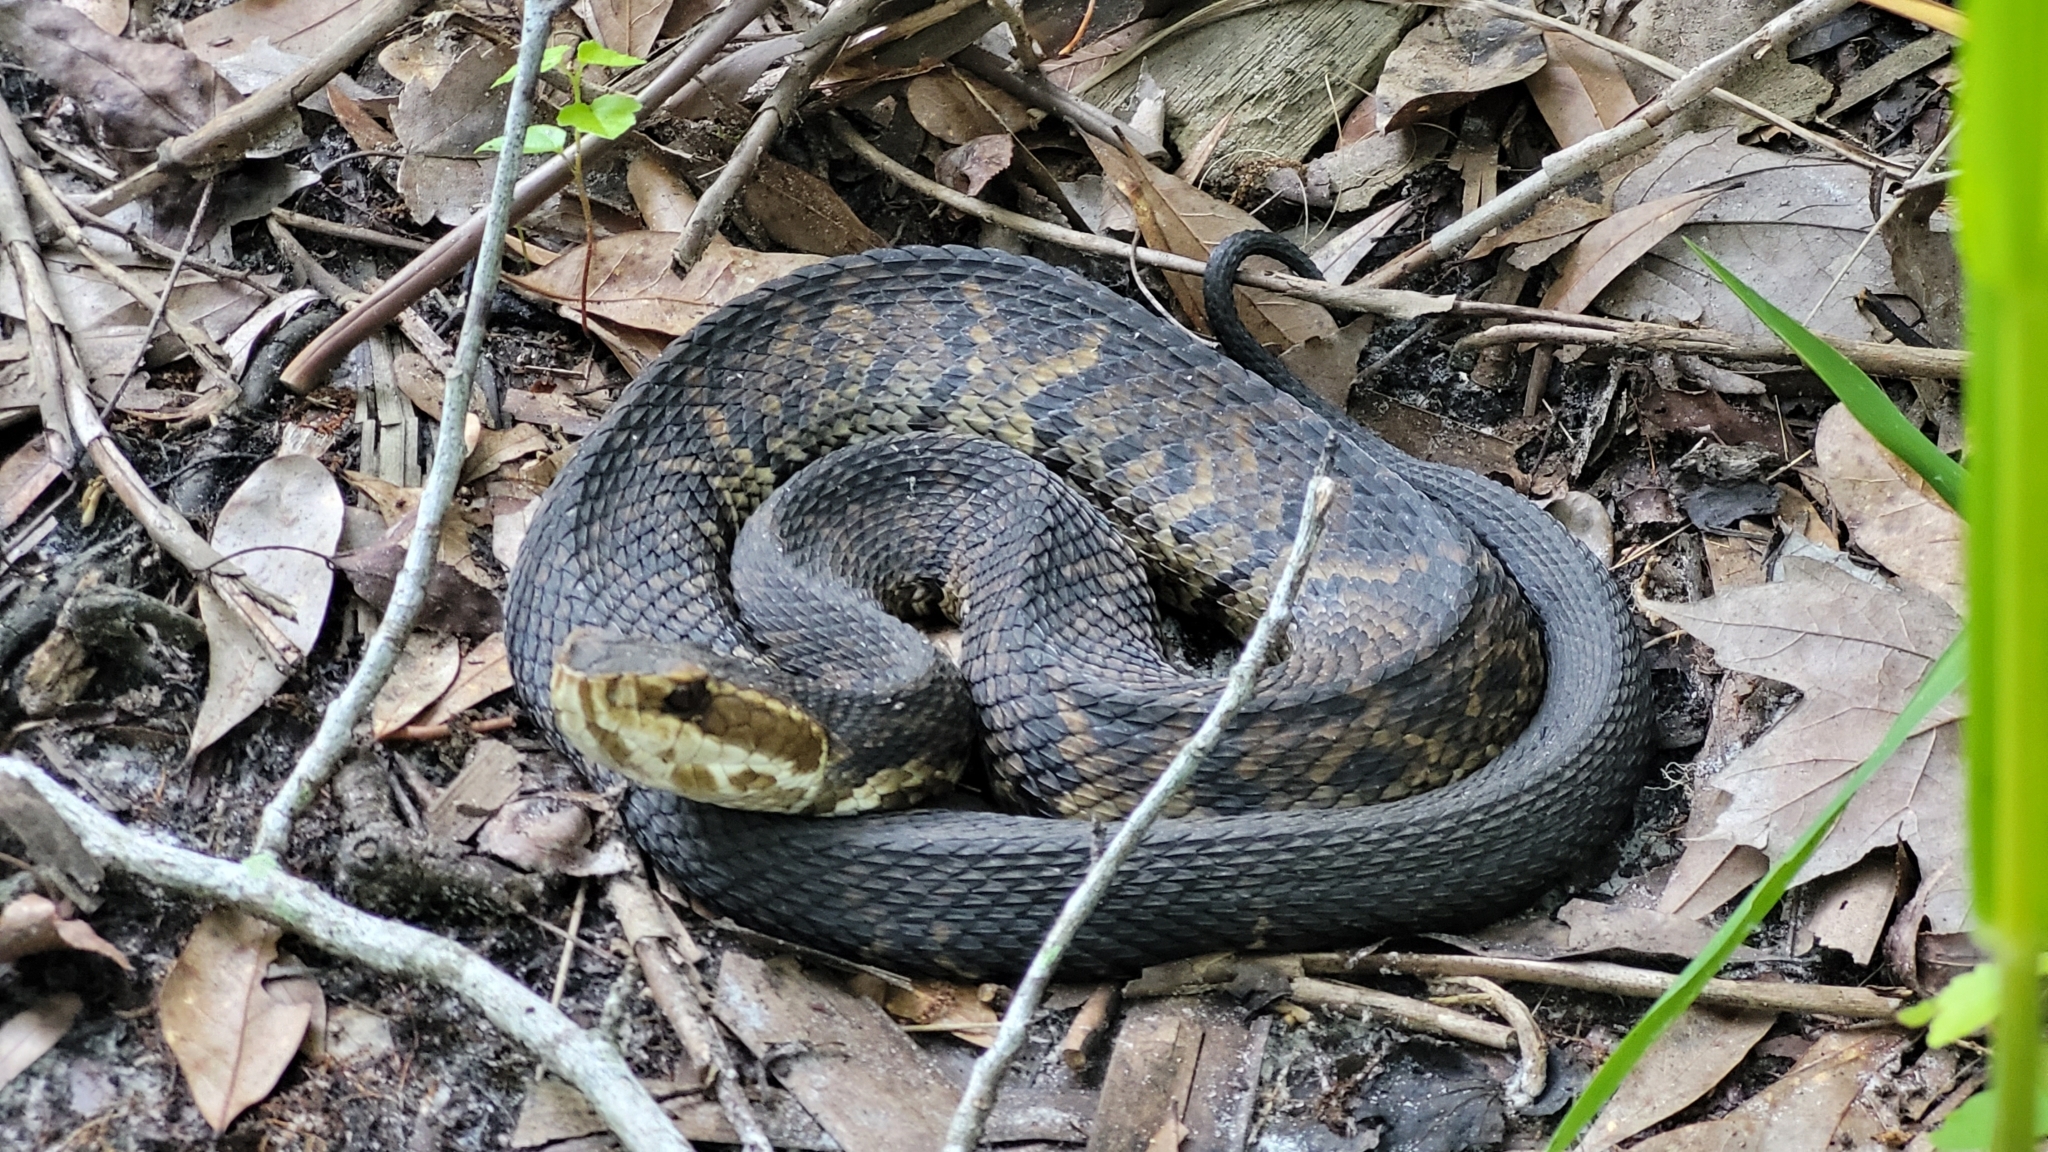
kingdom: Animalia
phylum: Chordata
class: Squamata
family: Viperidae
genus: Agkistrodon
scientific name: Agkistrodon conanti
